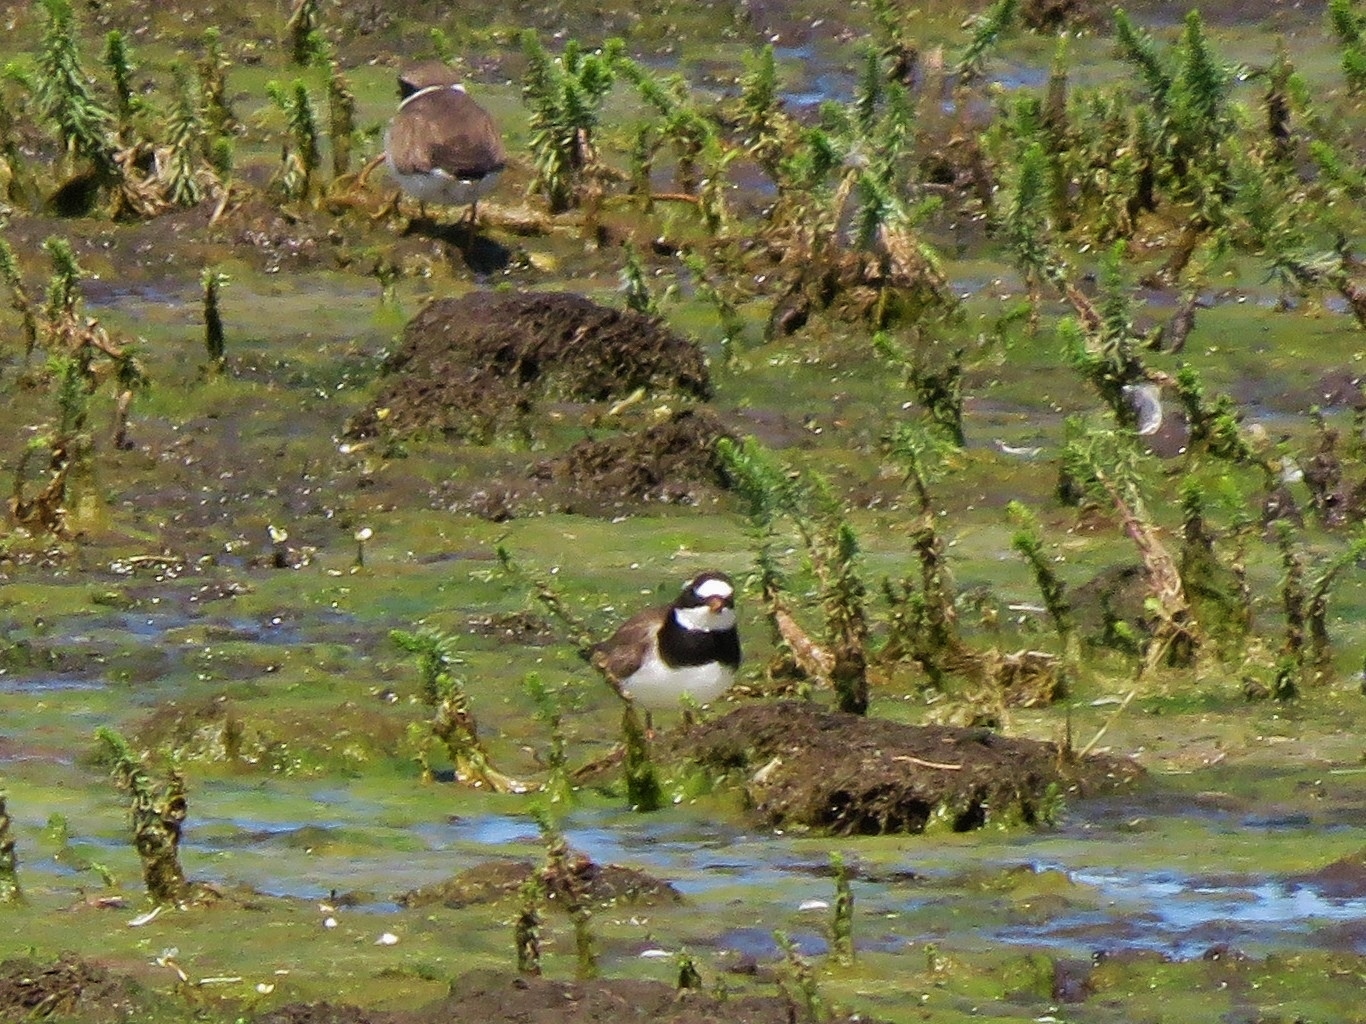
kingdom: Animalia
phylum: Chordata
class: Aves
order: Charadriiformes
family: Charadriidae
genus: Charadrius
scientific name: Charadrius hiaticula
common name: Common ringed plover
